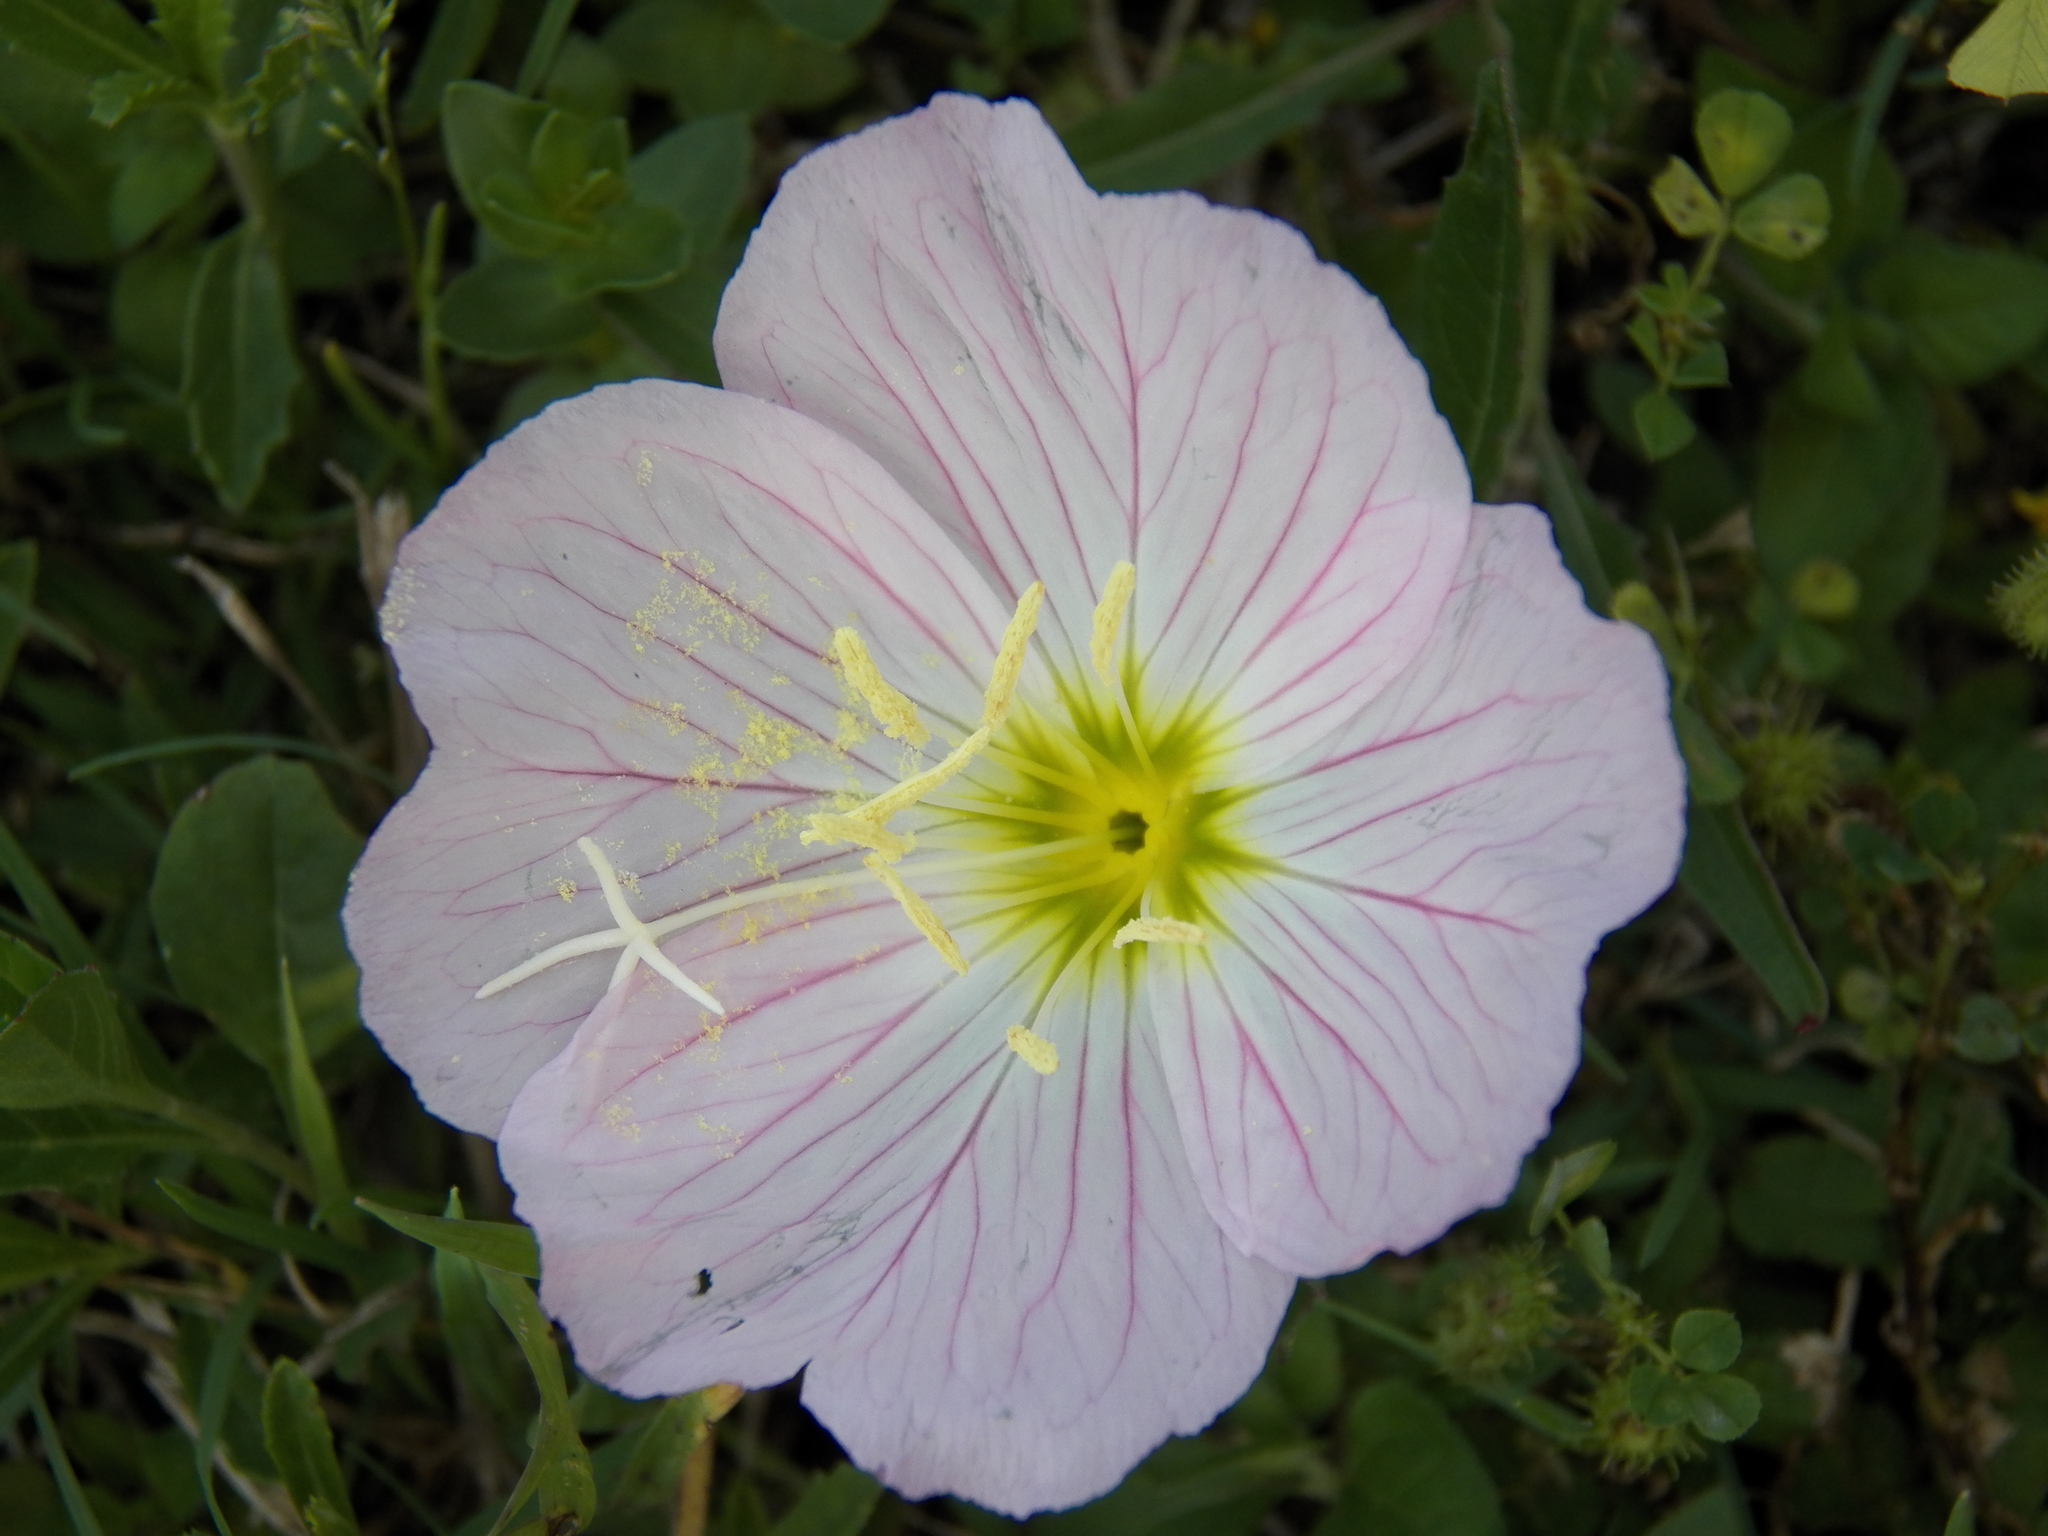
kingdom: Plantae
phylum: Tracheophyta
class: Magnoliopsida
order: Myrtales
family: Onagraceae
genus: Oenothera
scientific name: Oenothera speciosa
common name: White evening-primrose
